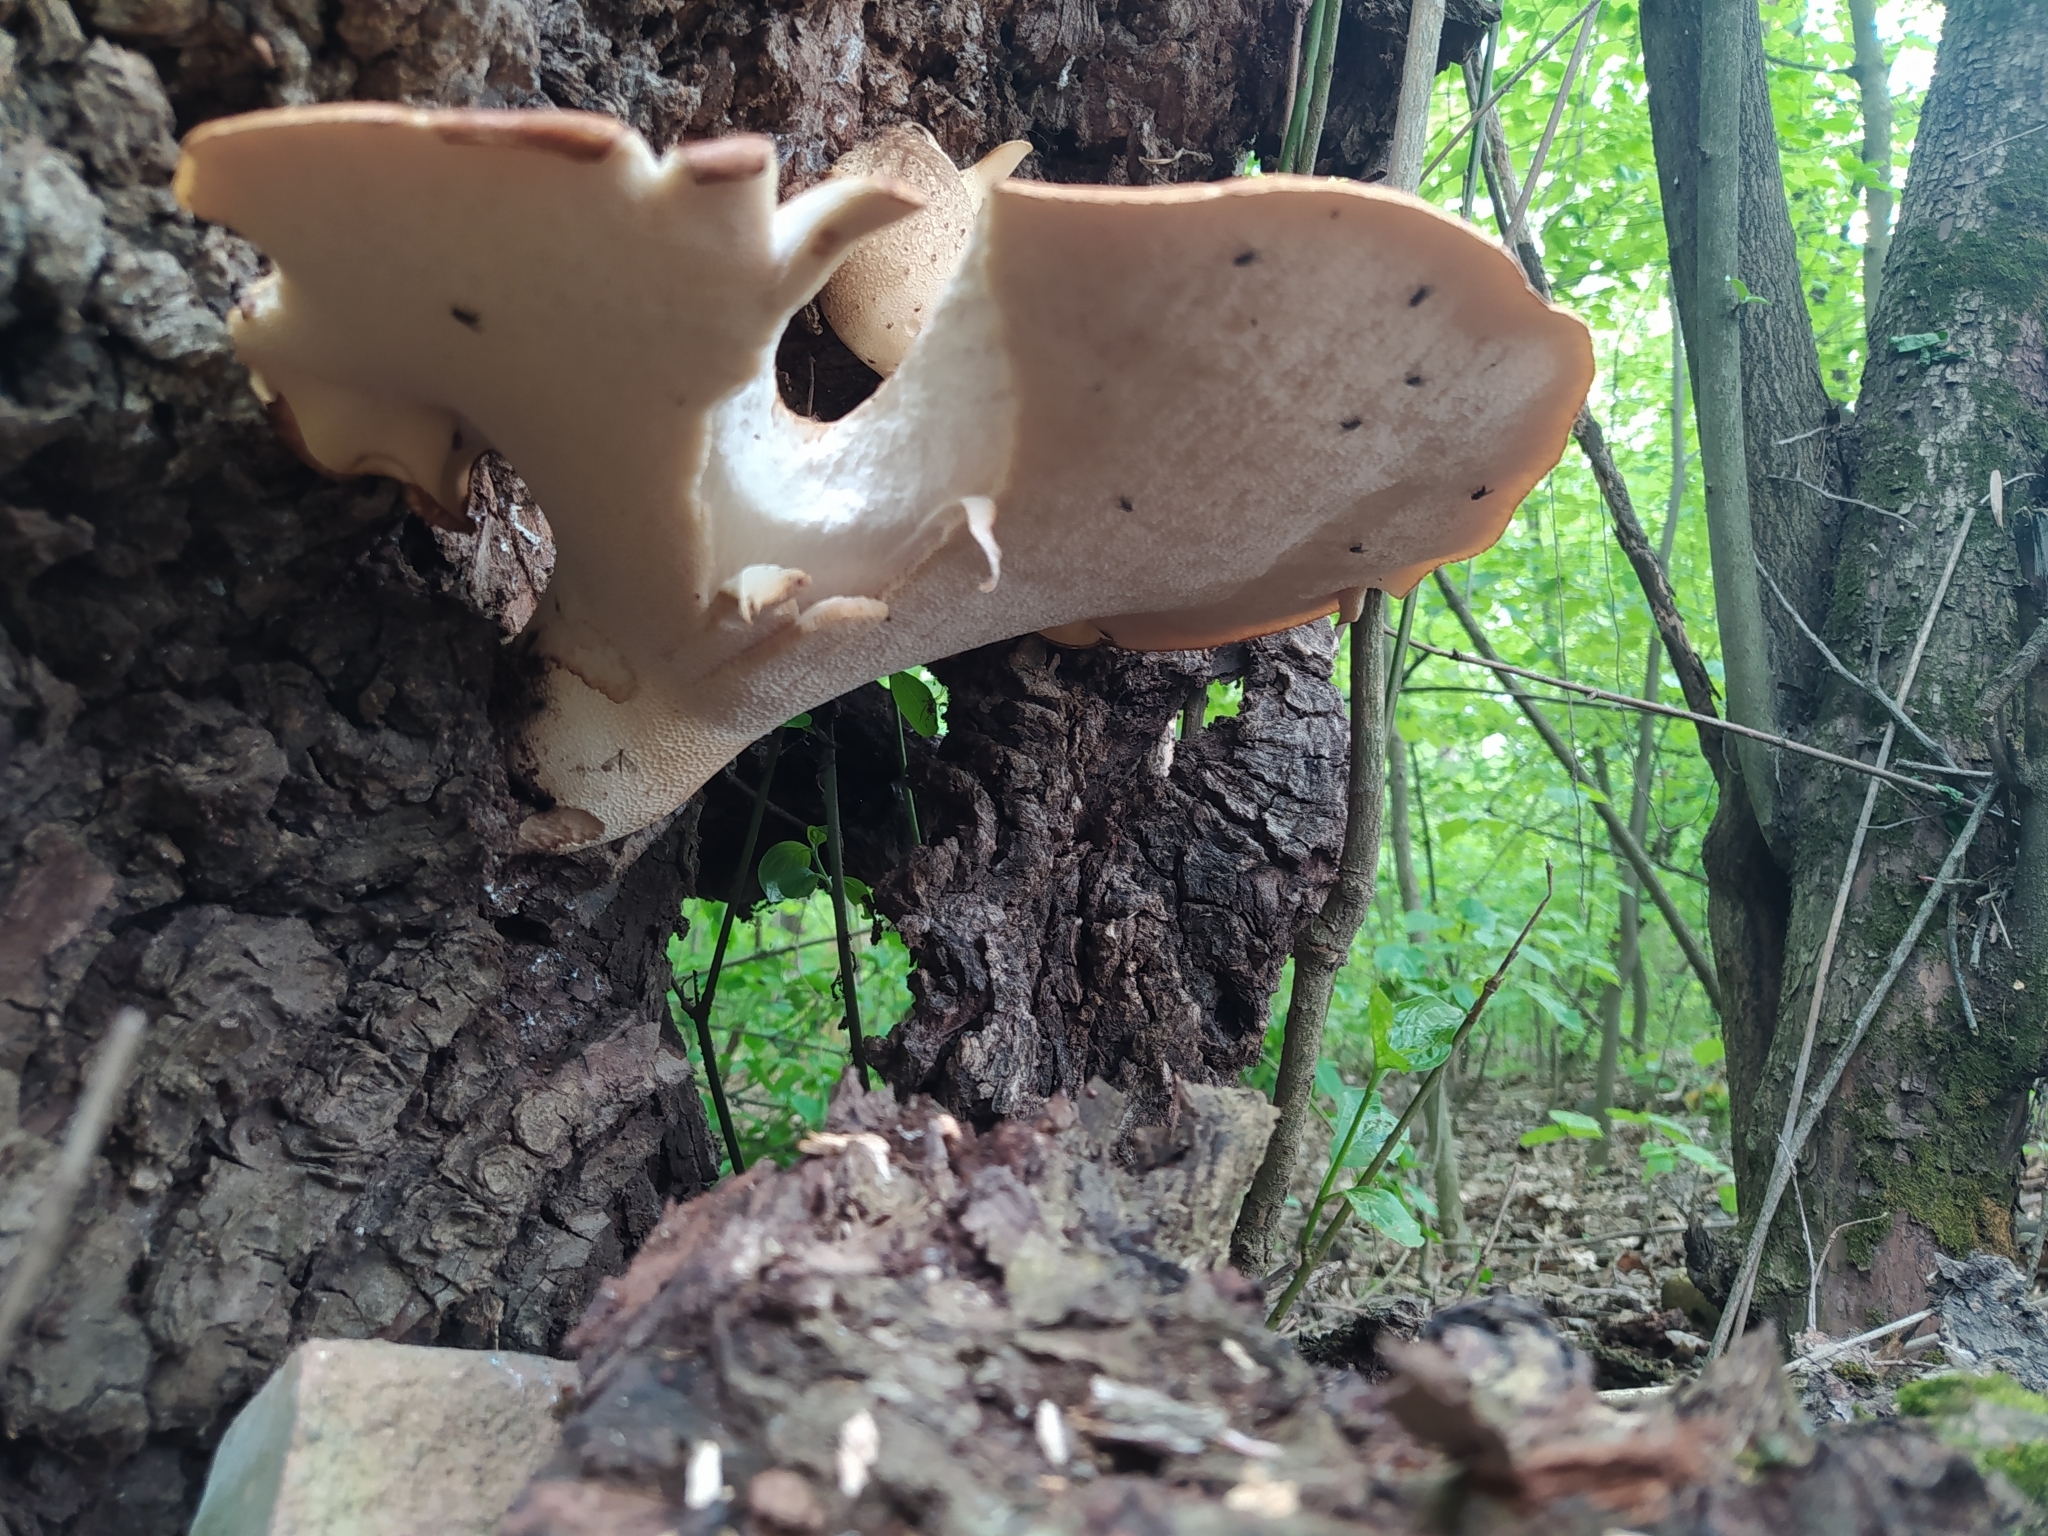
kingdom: Fungi
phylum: Basidiomycota
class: Agaricomycetes
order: Polyporales
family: Polyporaceae
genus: Cerioporus
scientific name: Cerioporus squamosus
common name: Dryad's saddle
